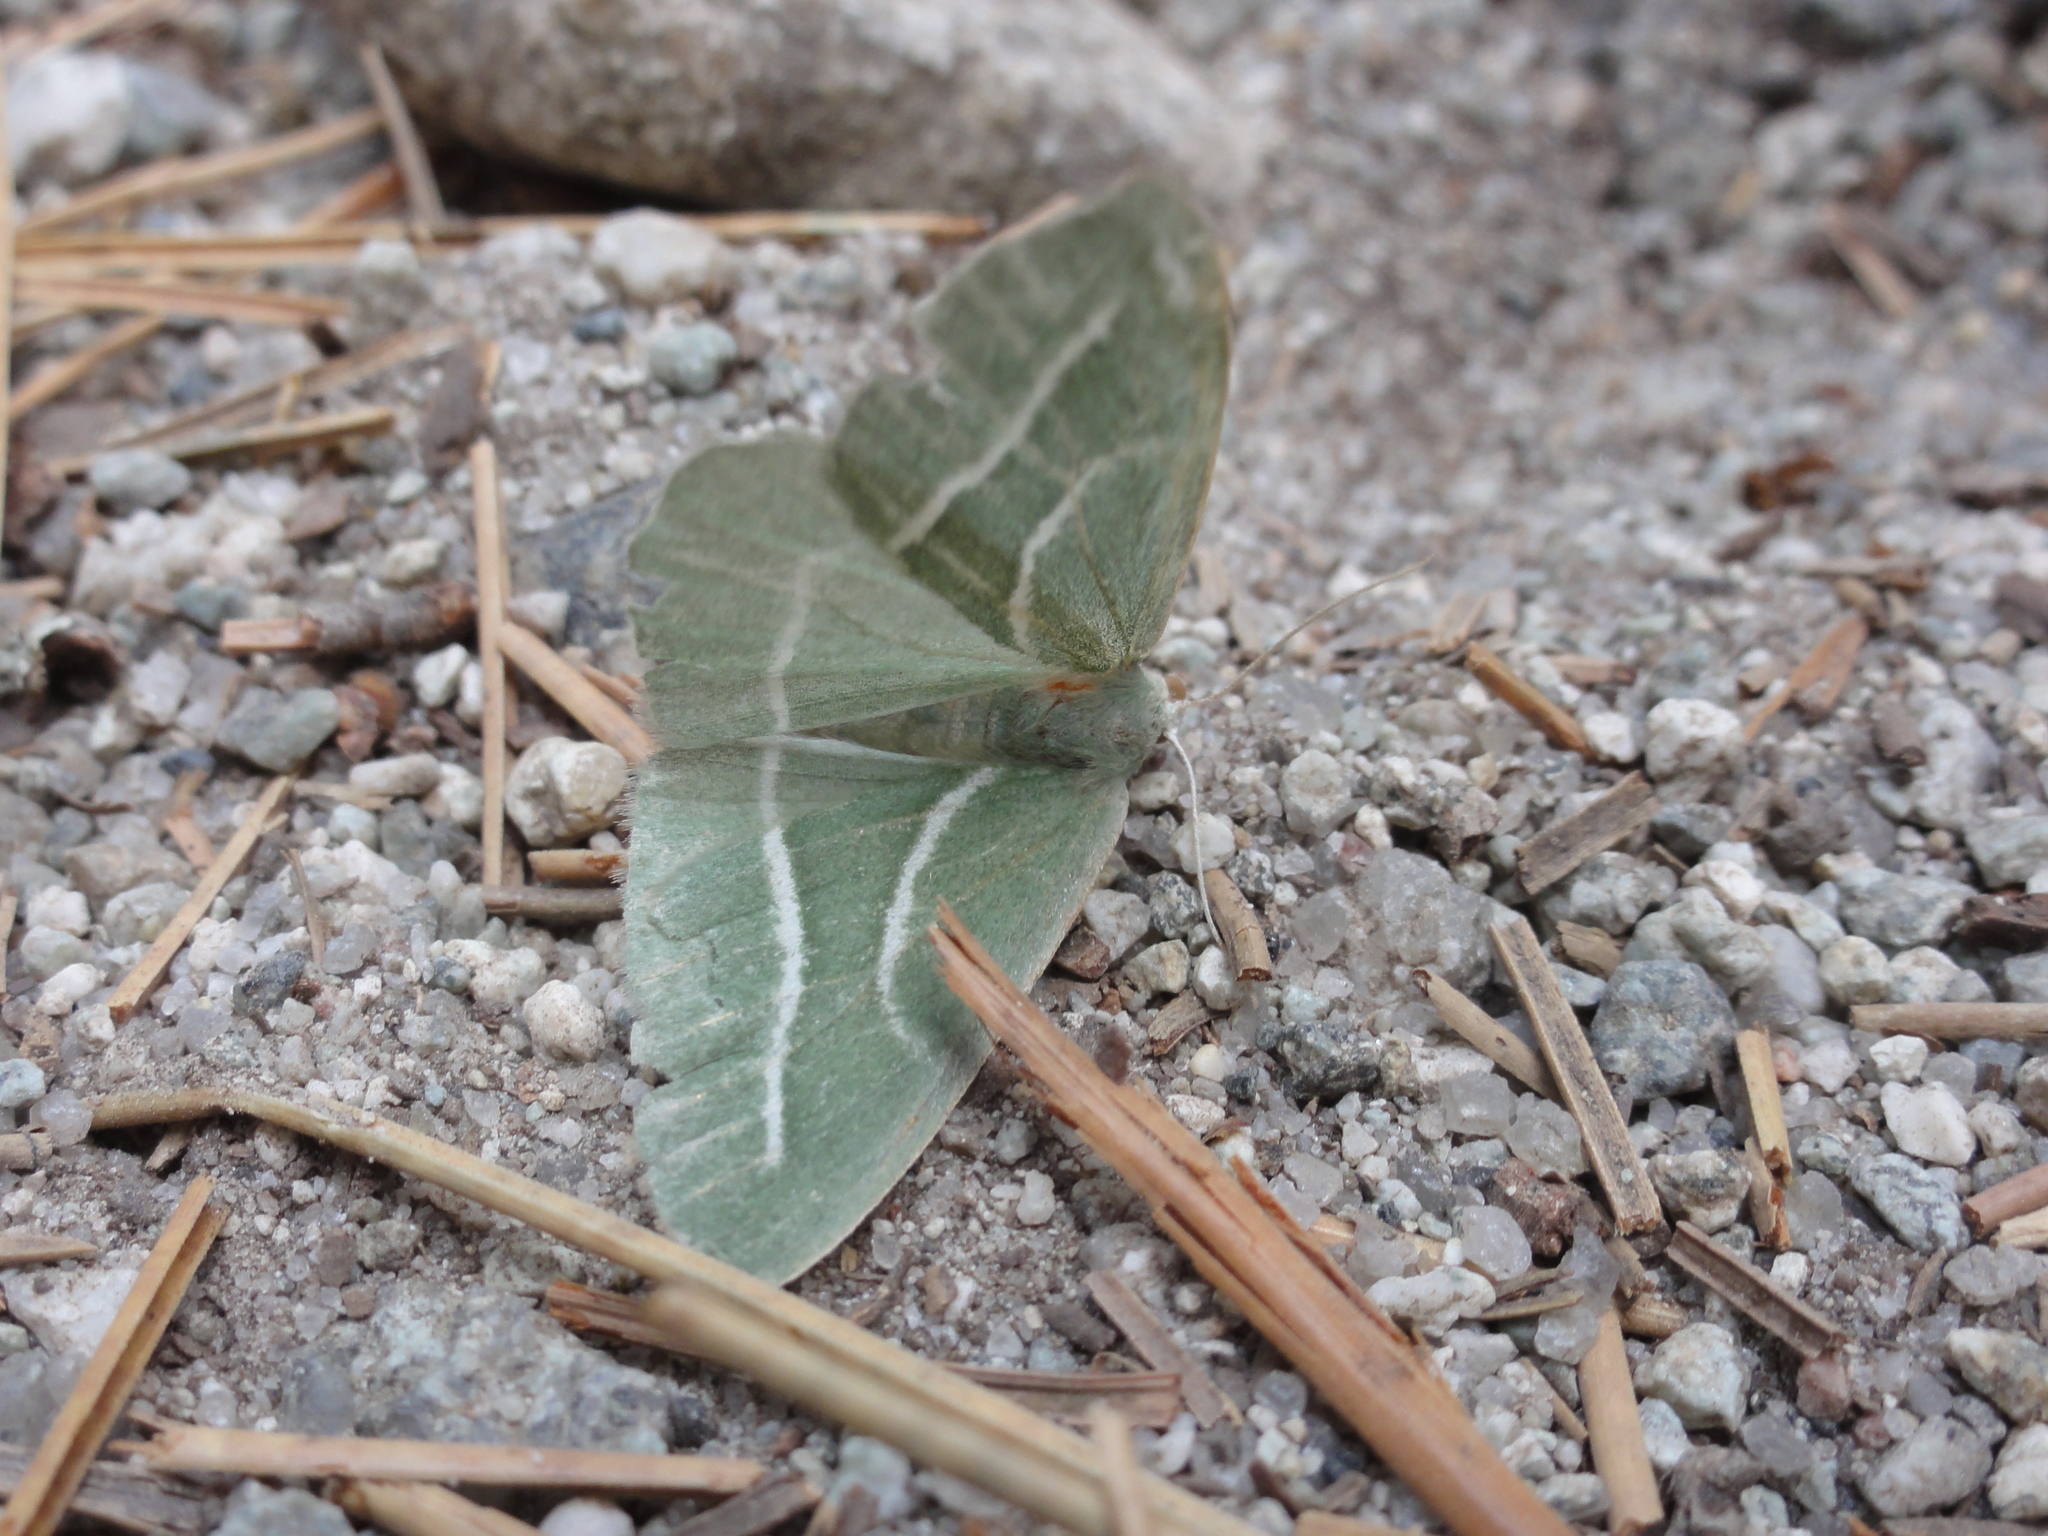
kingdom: Animalia
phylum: Arthropoda
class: Insecta
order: Lepidoptera
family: Geometridae
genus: Hylaea
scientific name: Hylaea pinicolaria
